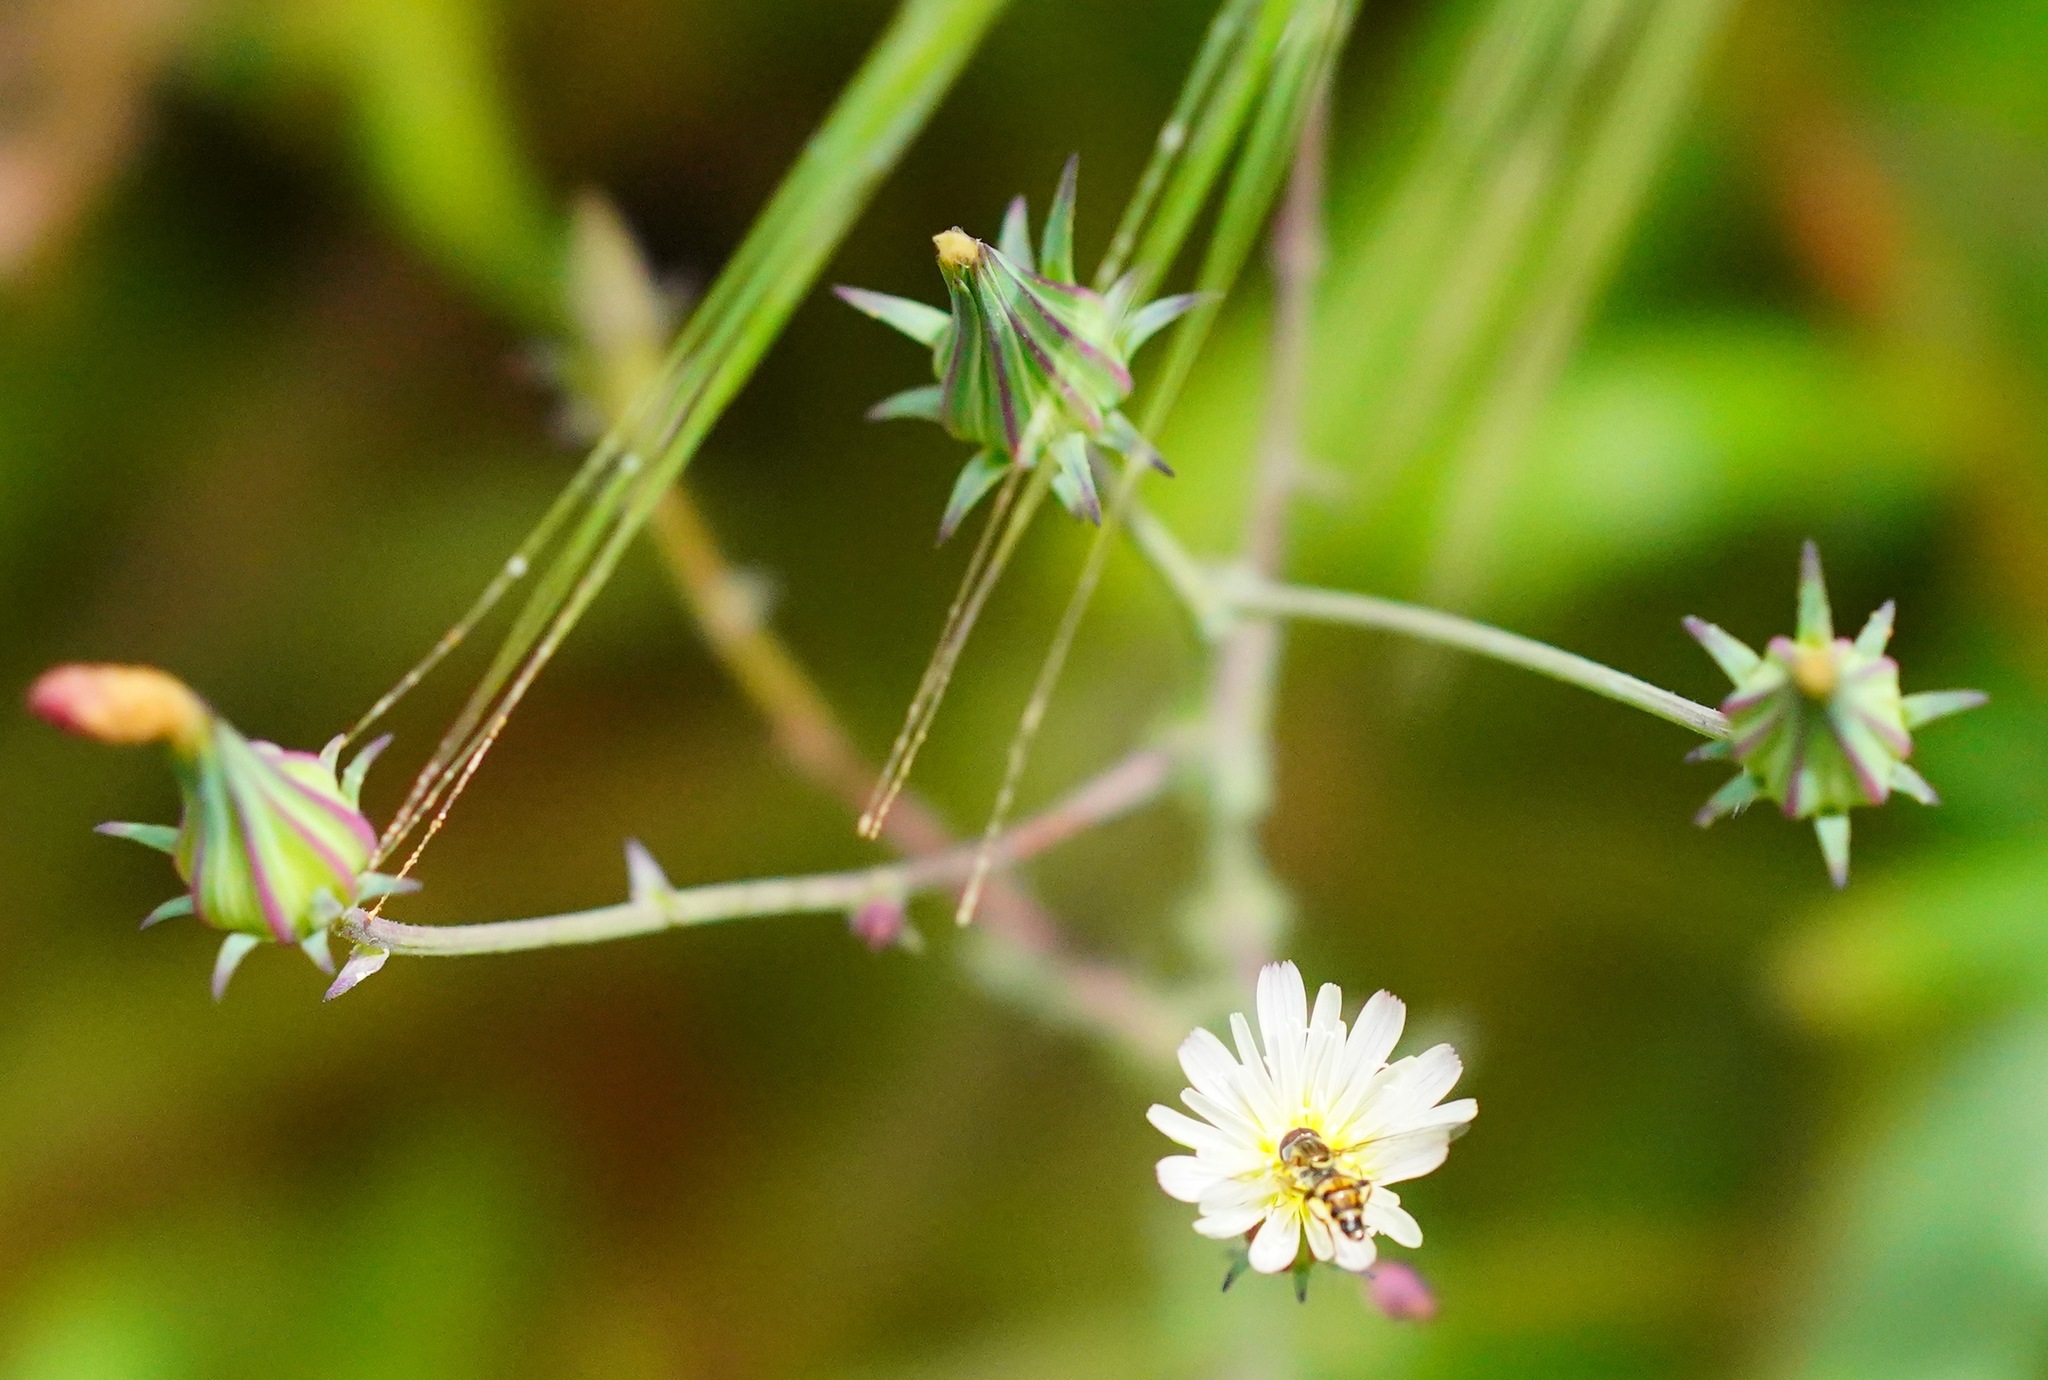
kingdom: Plantae
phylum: Tracheophyta
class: Magnoliopsida
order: Asterales
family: Asteraceae
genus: Rafinesquia
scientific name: Rafinesquia californica
